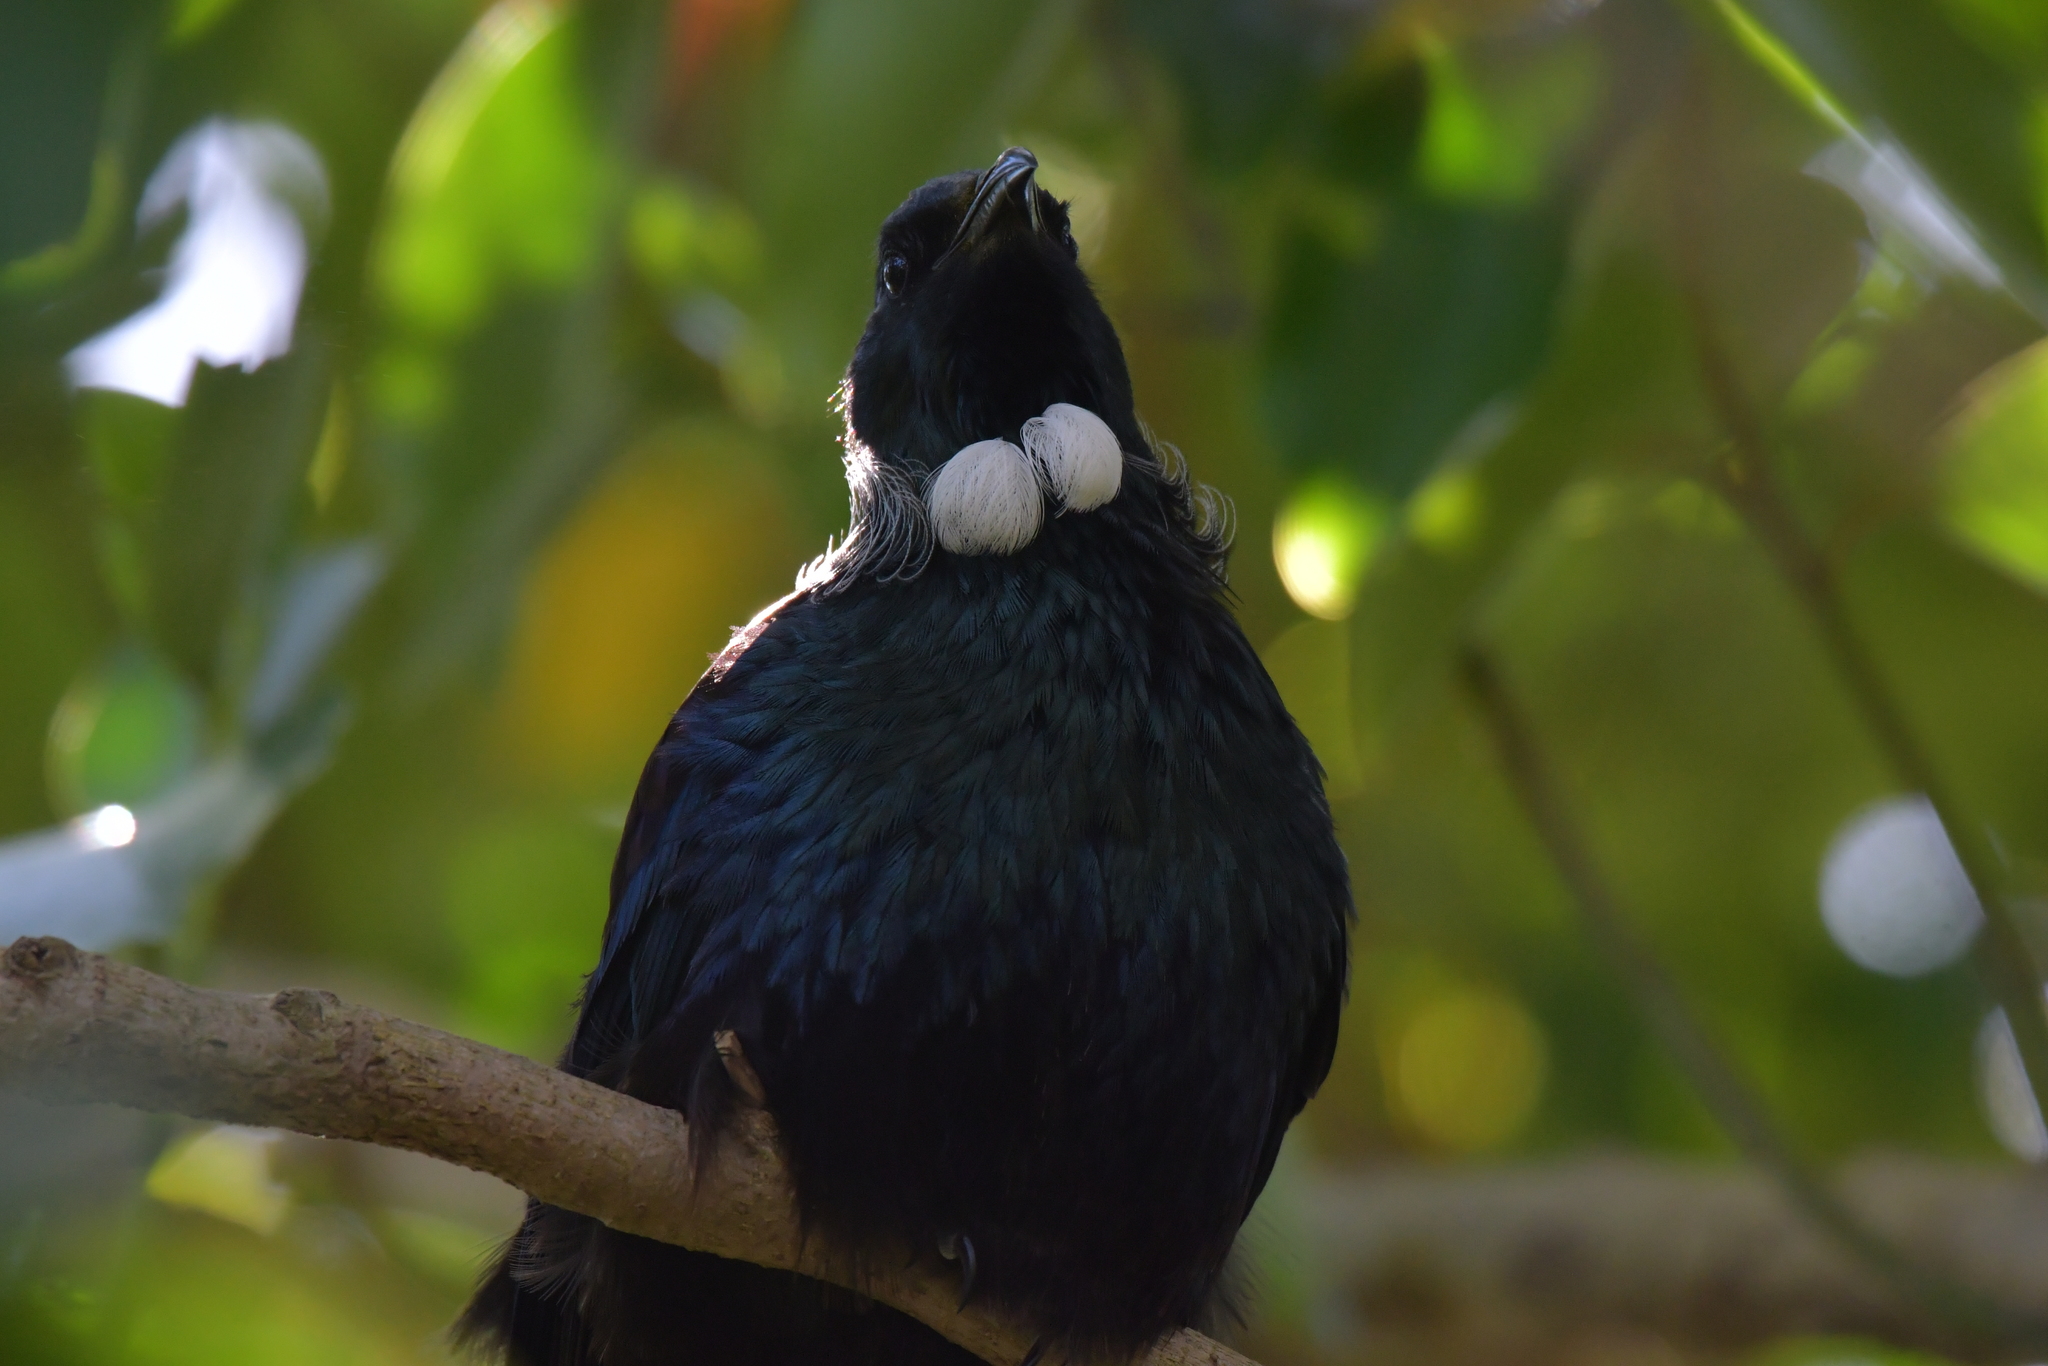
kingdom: Animalia
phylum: Chordata
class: Aves
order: Passeriformes
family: Meliphagidae
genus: Prosthemadera
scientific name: Prosthemadera novaeseelandiae
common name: Tui
